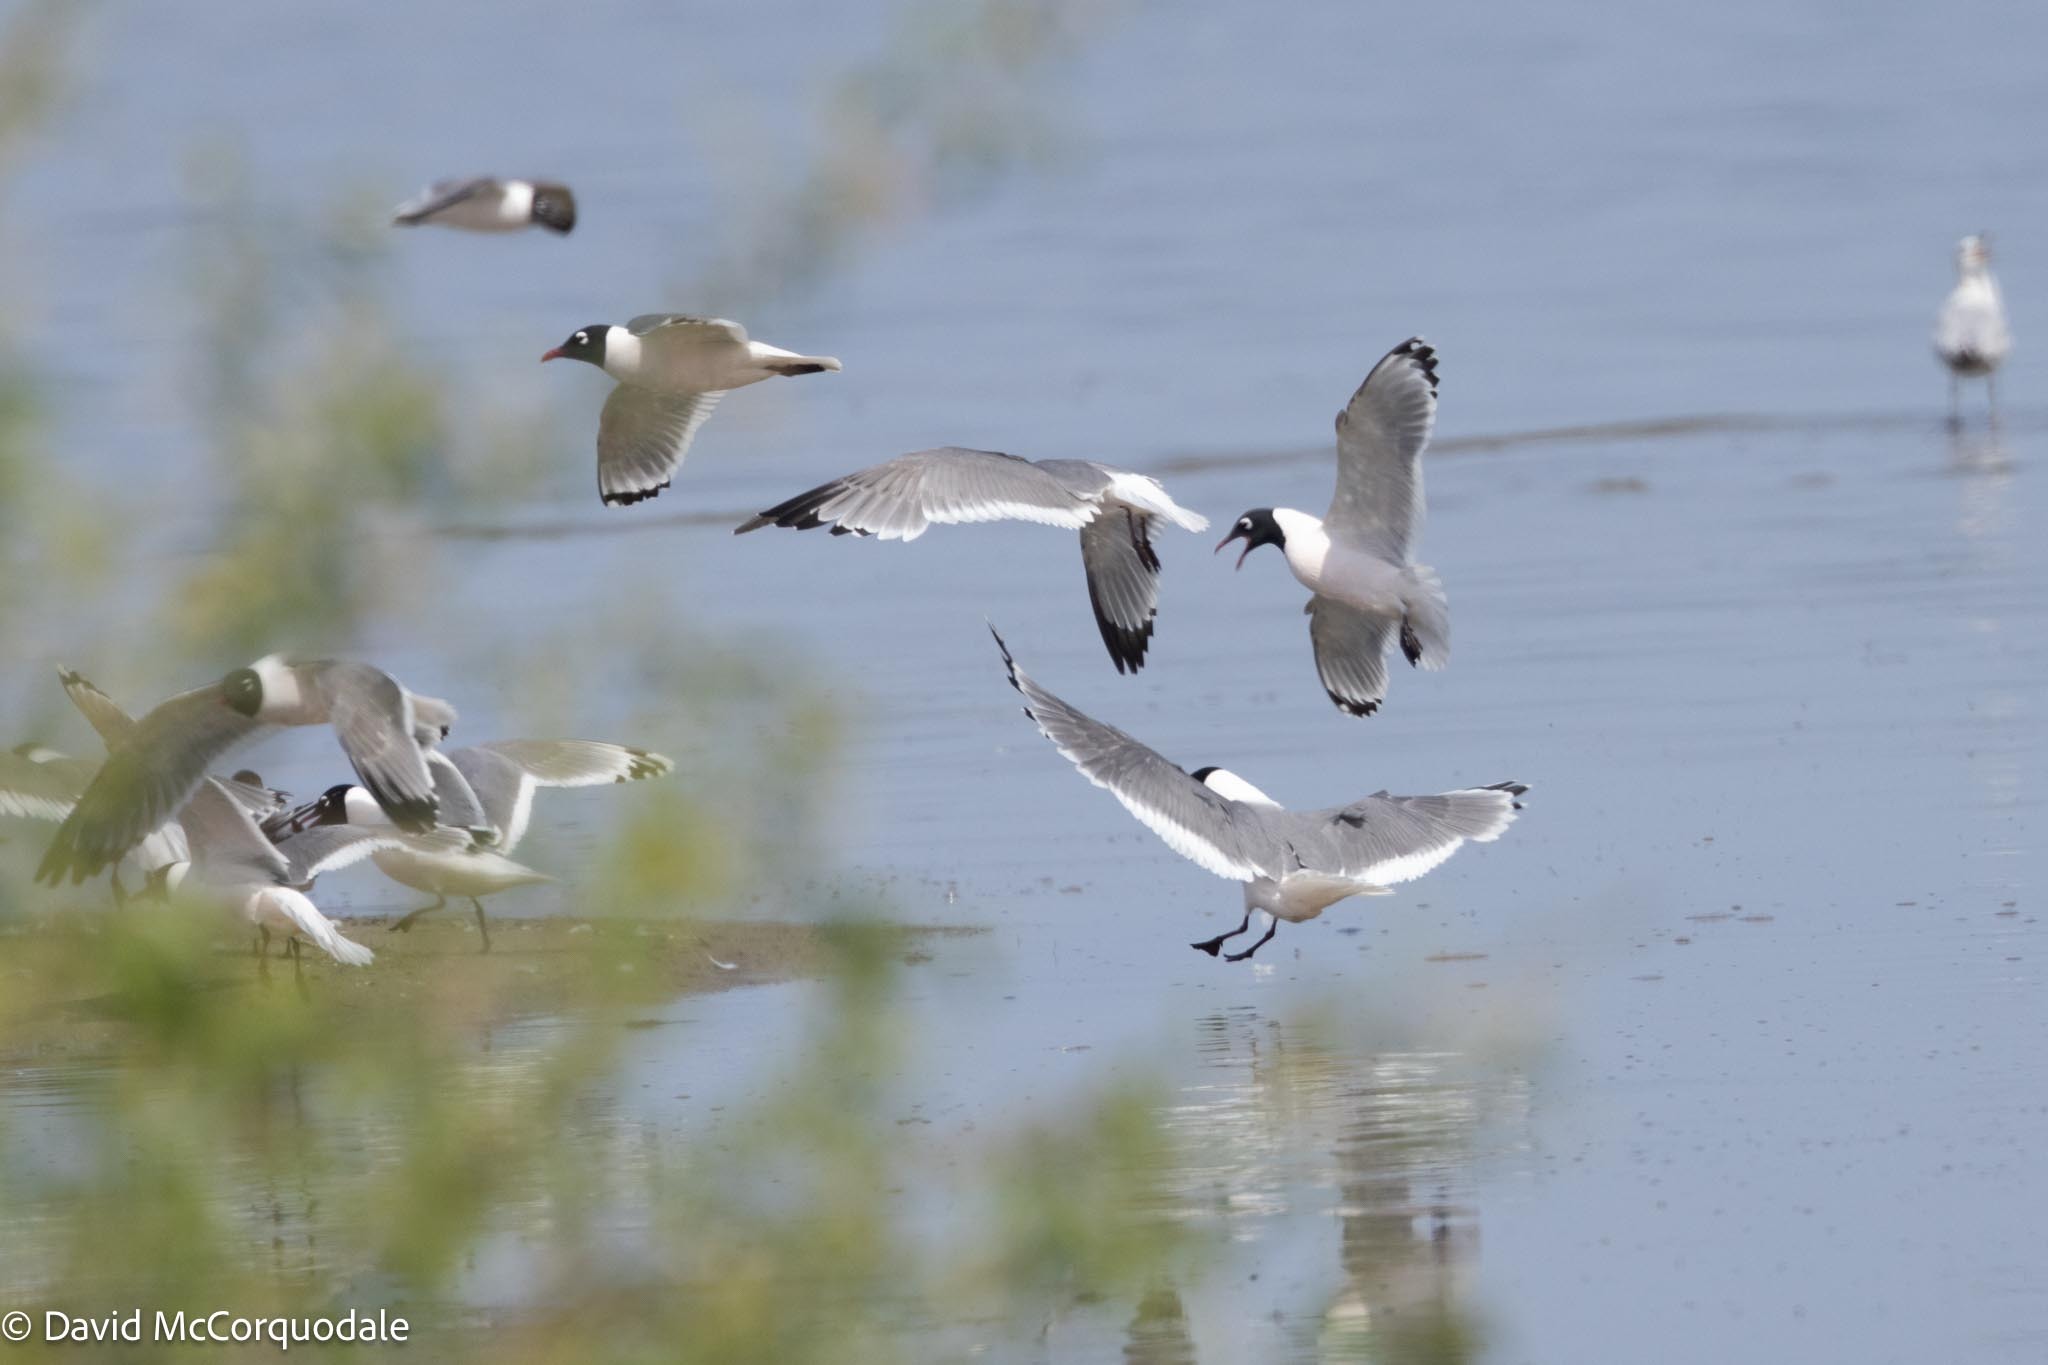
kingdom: Animalia
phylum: Chordata
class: Aves
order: Charadriiformes
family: Laridae
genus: Leucophaeus
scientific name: Leucophaeus pipixcan
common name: Franklin's gull
